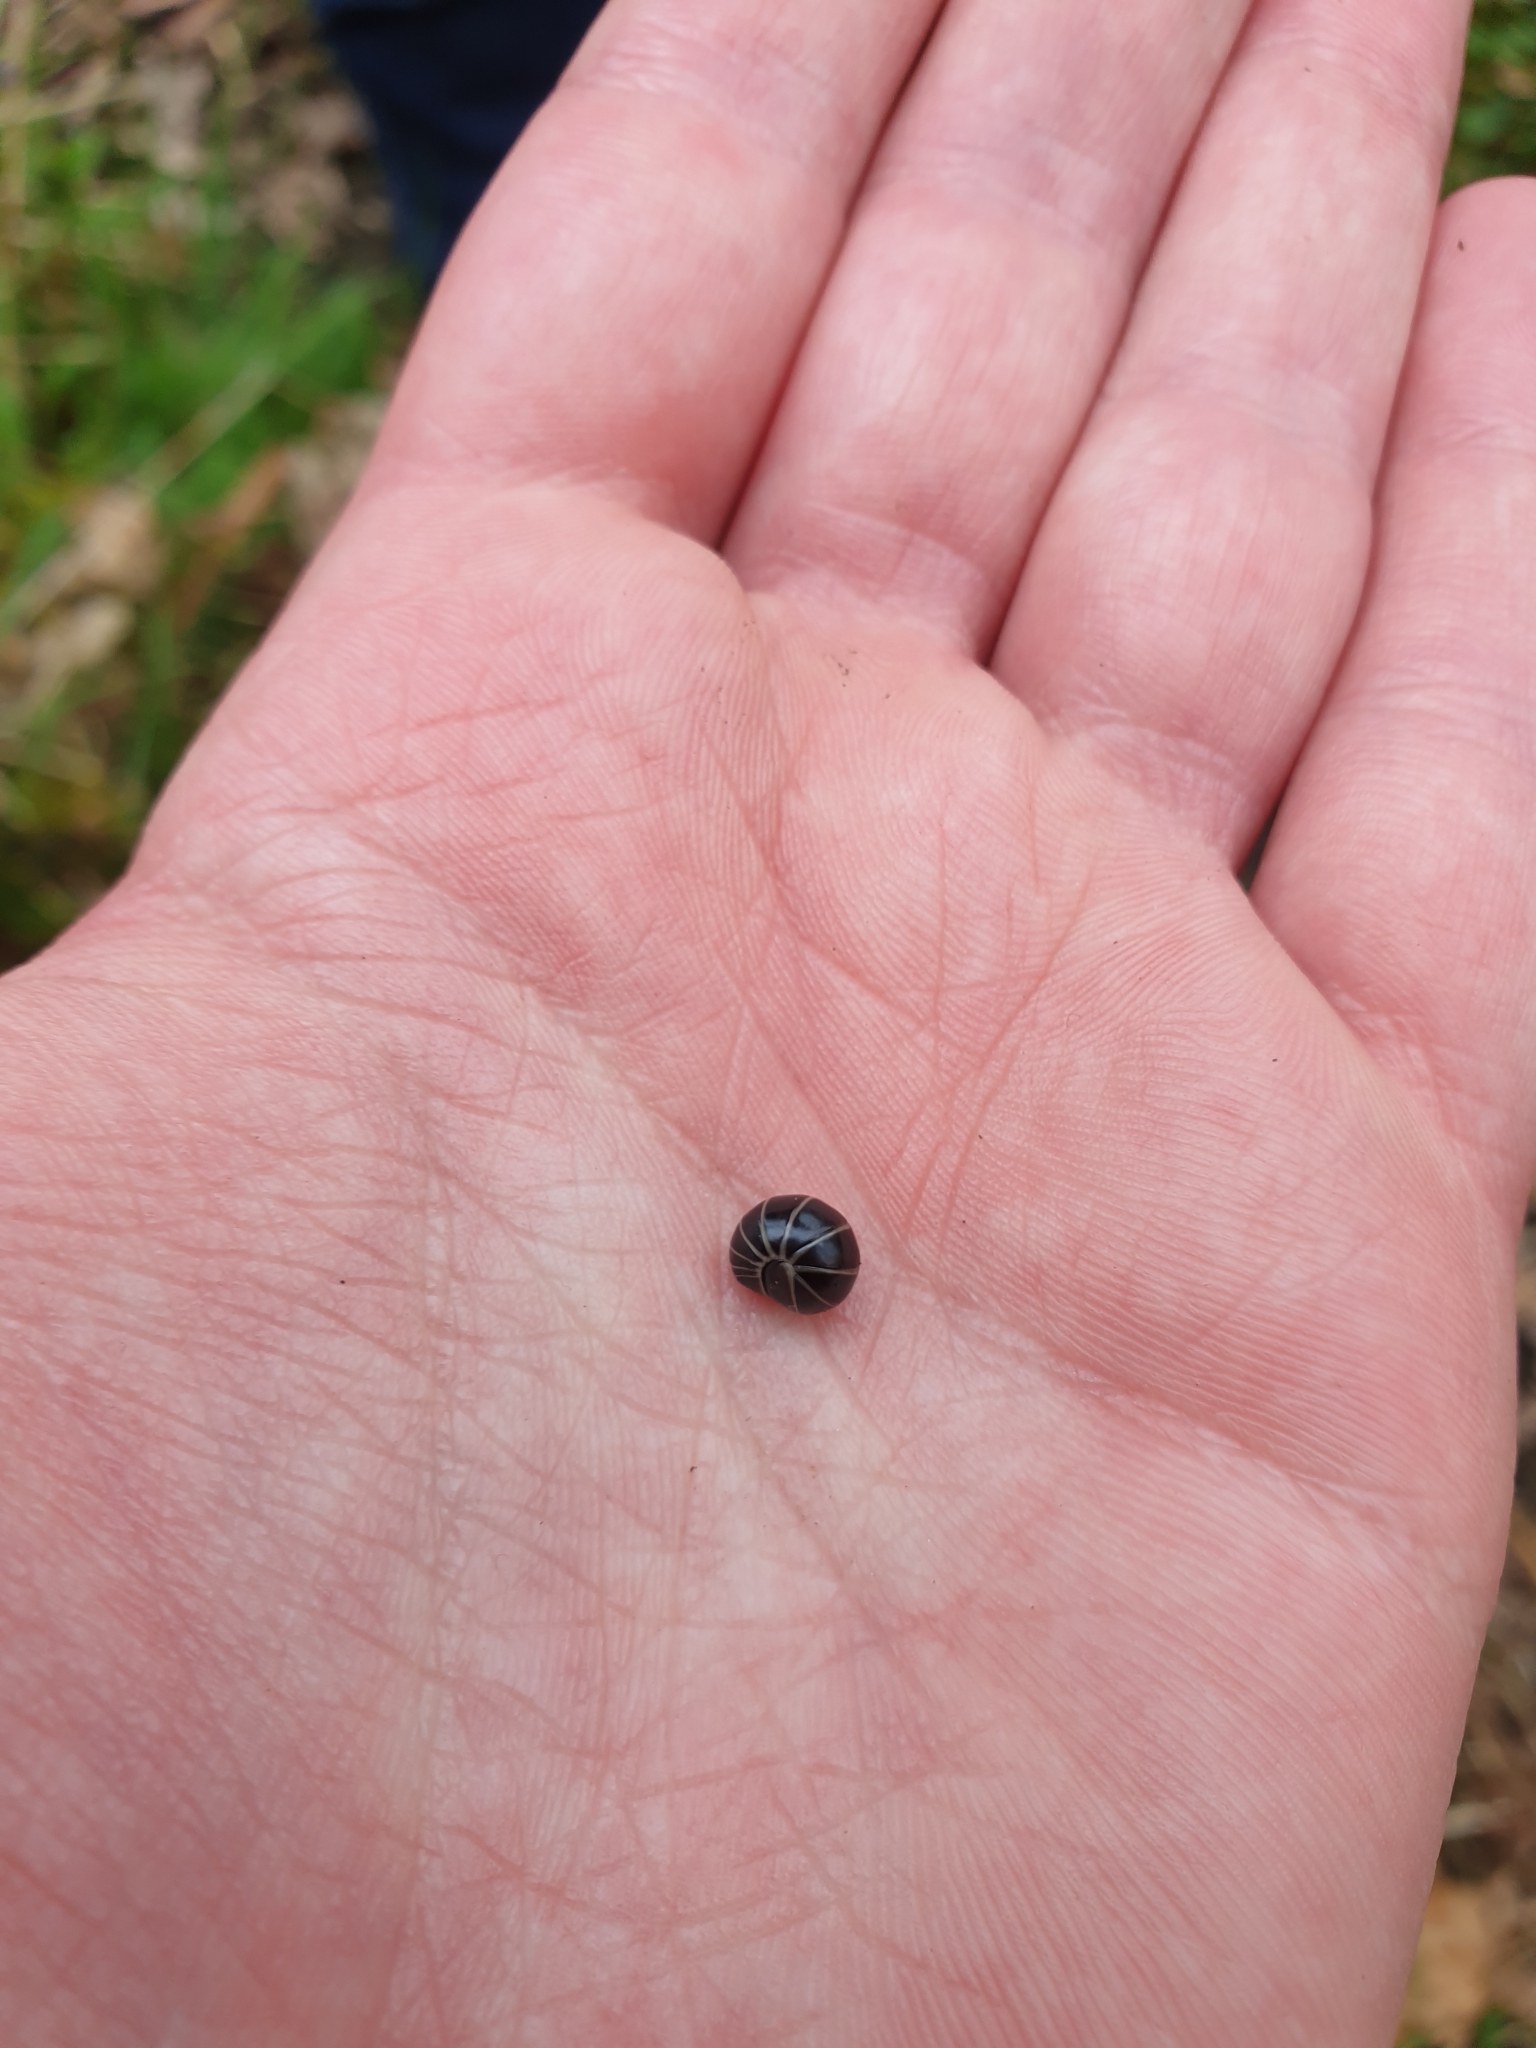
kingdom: Animalia
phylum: Arthropoda
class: Diplopoda
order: Glomerida
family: Glomeridae
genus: Glomeris
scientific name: Glomeris marginata
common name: Bordered pill millipede
